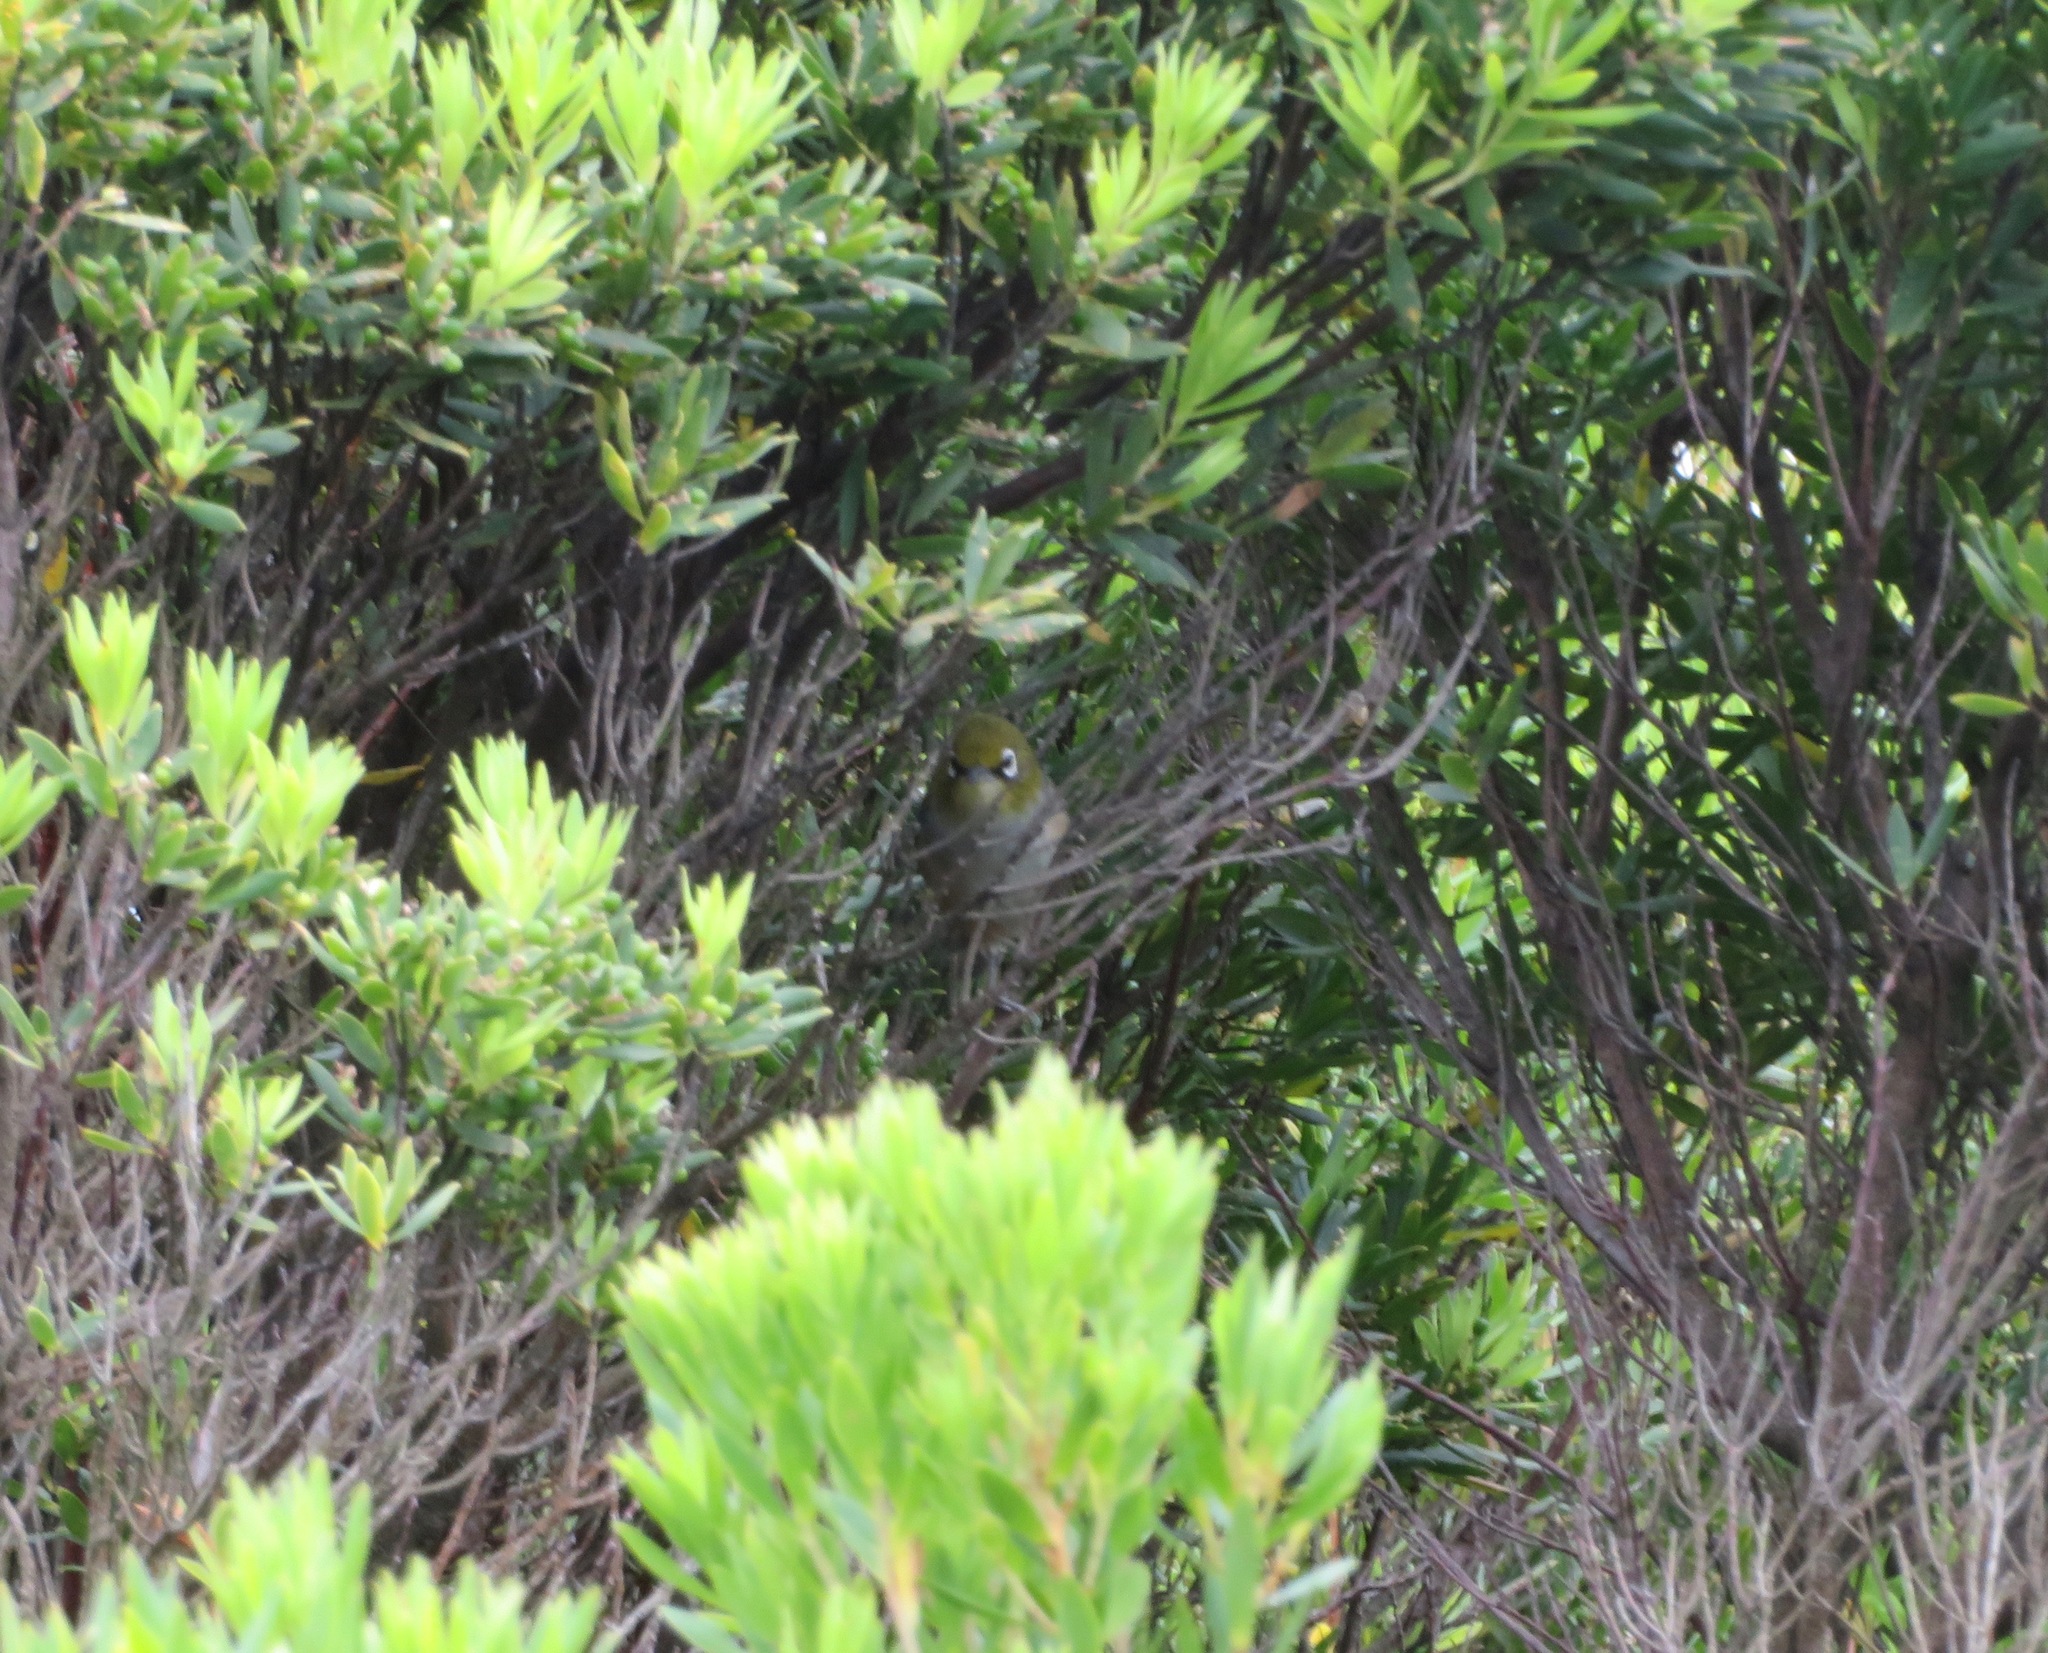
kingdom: Animalia
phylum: Chordata
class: Aves
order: Passeriformes
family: Zosteropidae
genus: Zosterops
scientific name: Zosterops lateralis
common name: Silvereye
